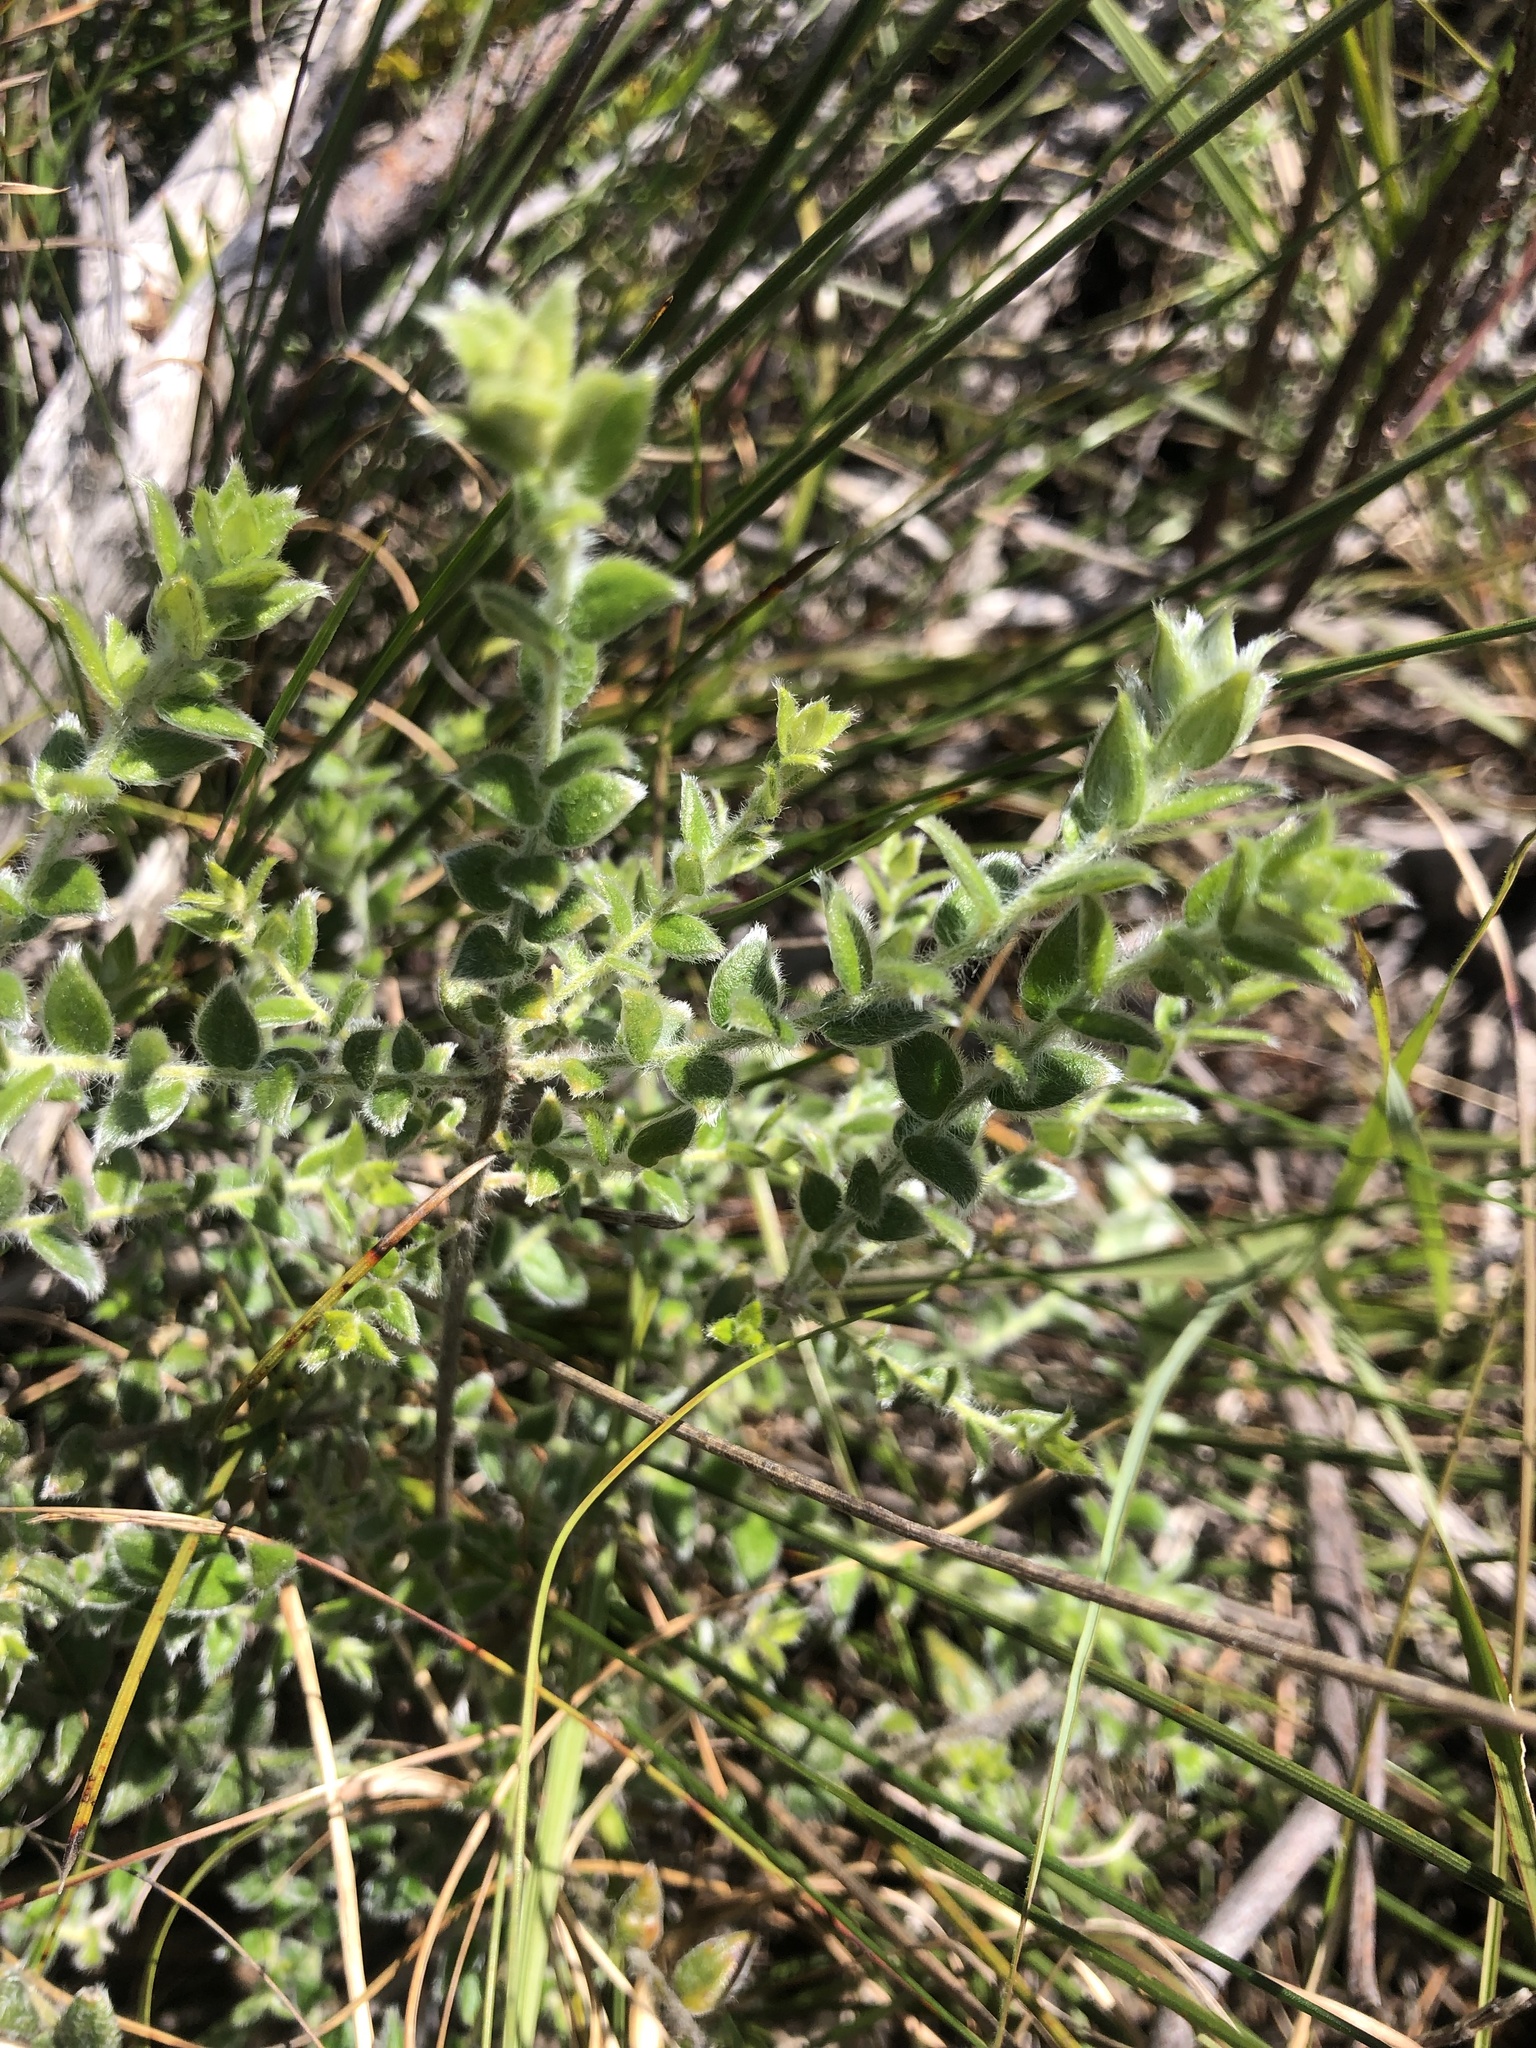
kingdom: Plantae
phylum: Tracheophyta
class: Magnoliopsida
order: Fabales
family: Fabaceae
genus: Amphithalea
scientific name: Amphithalea rostrata
